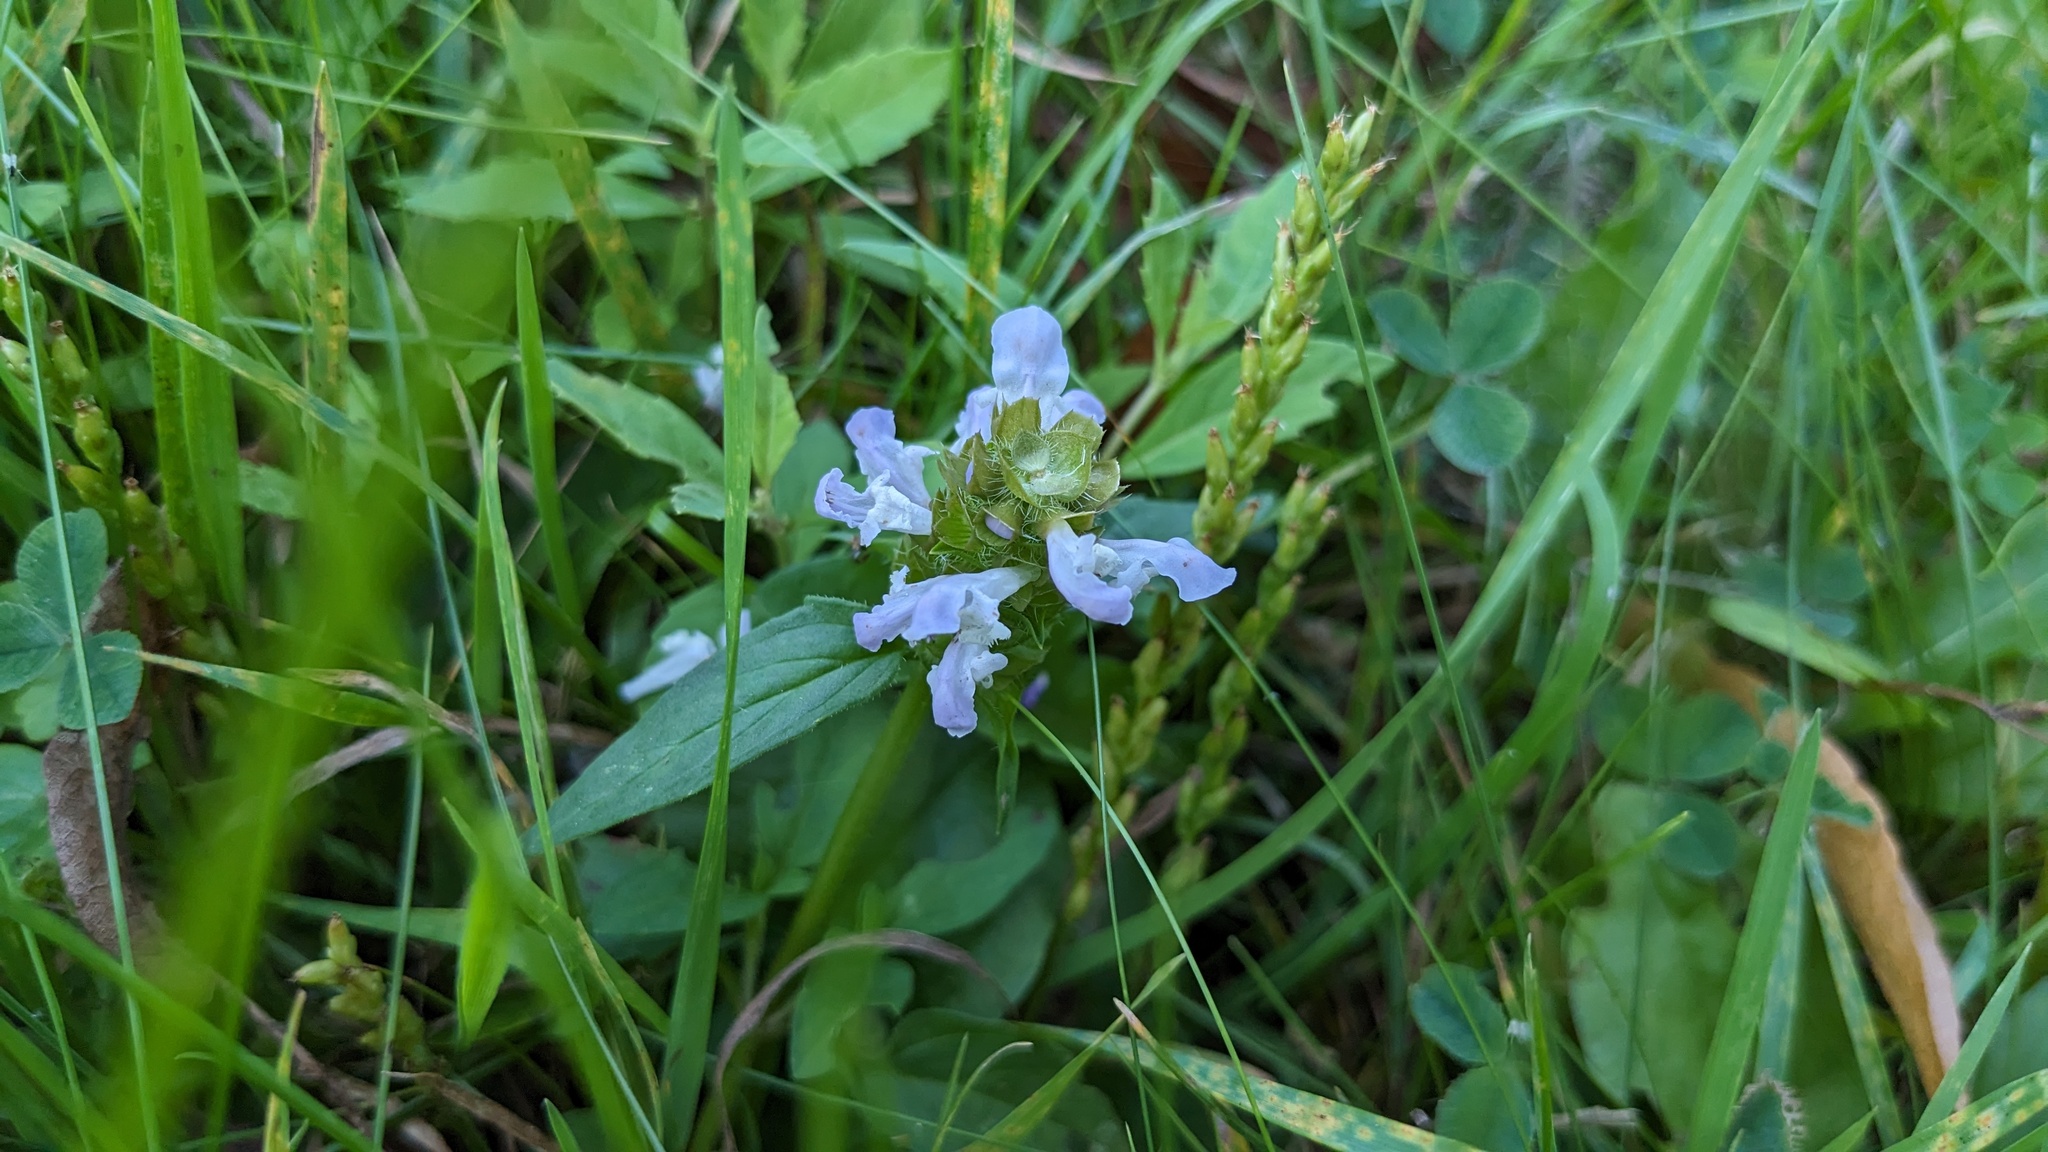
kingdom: Plantae
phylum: Tracheophyta
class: Magnoliopsida
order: Lamiales
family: Lamiaceae
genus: Prunella
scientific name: Prunella vulgaris
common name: Heal-all
